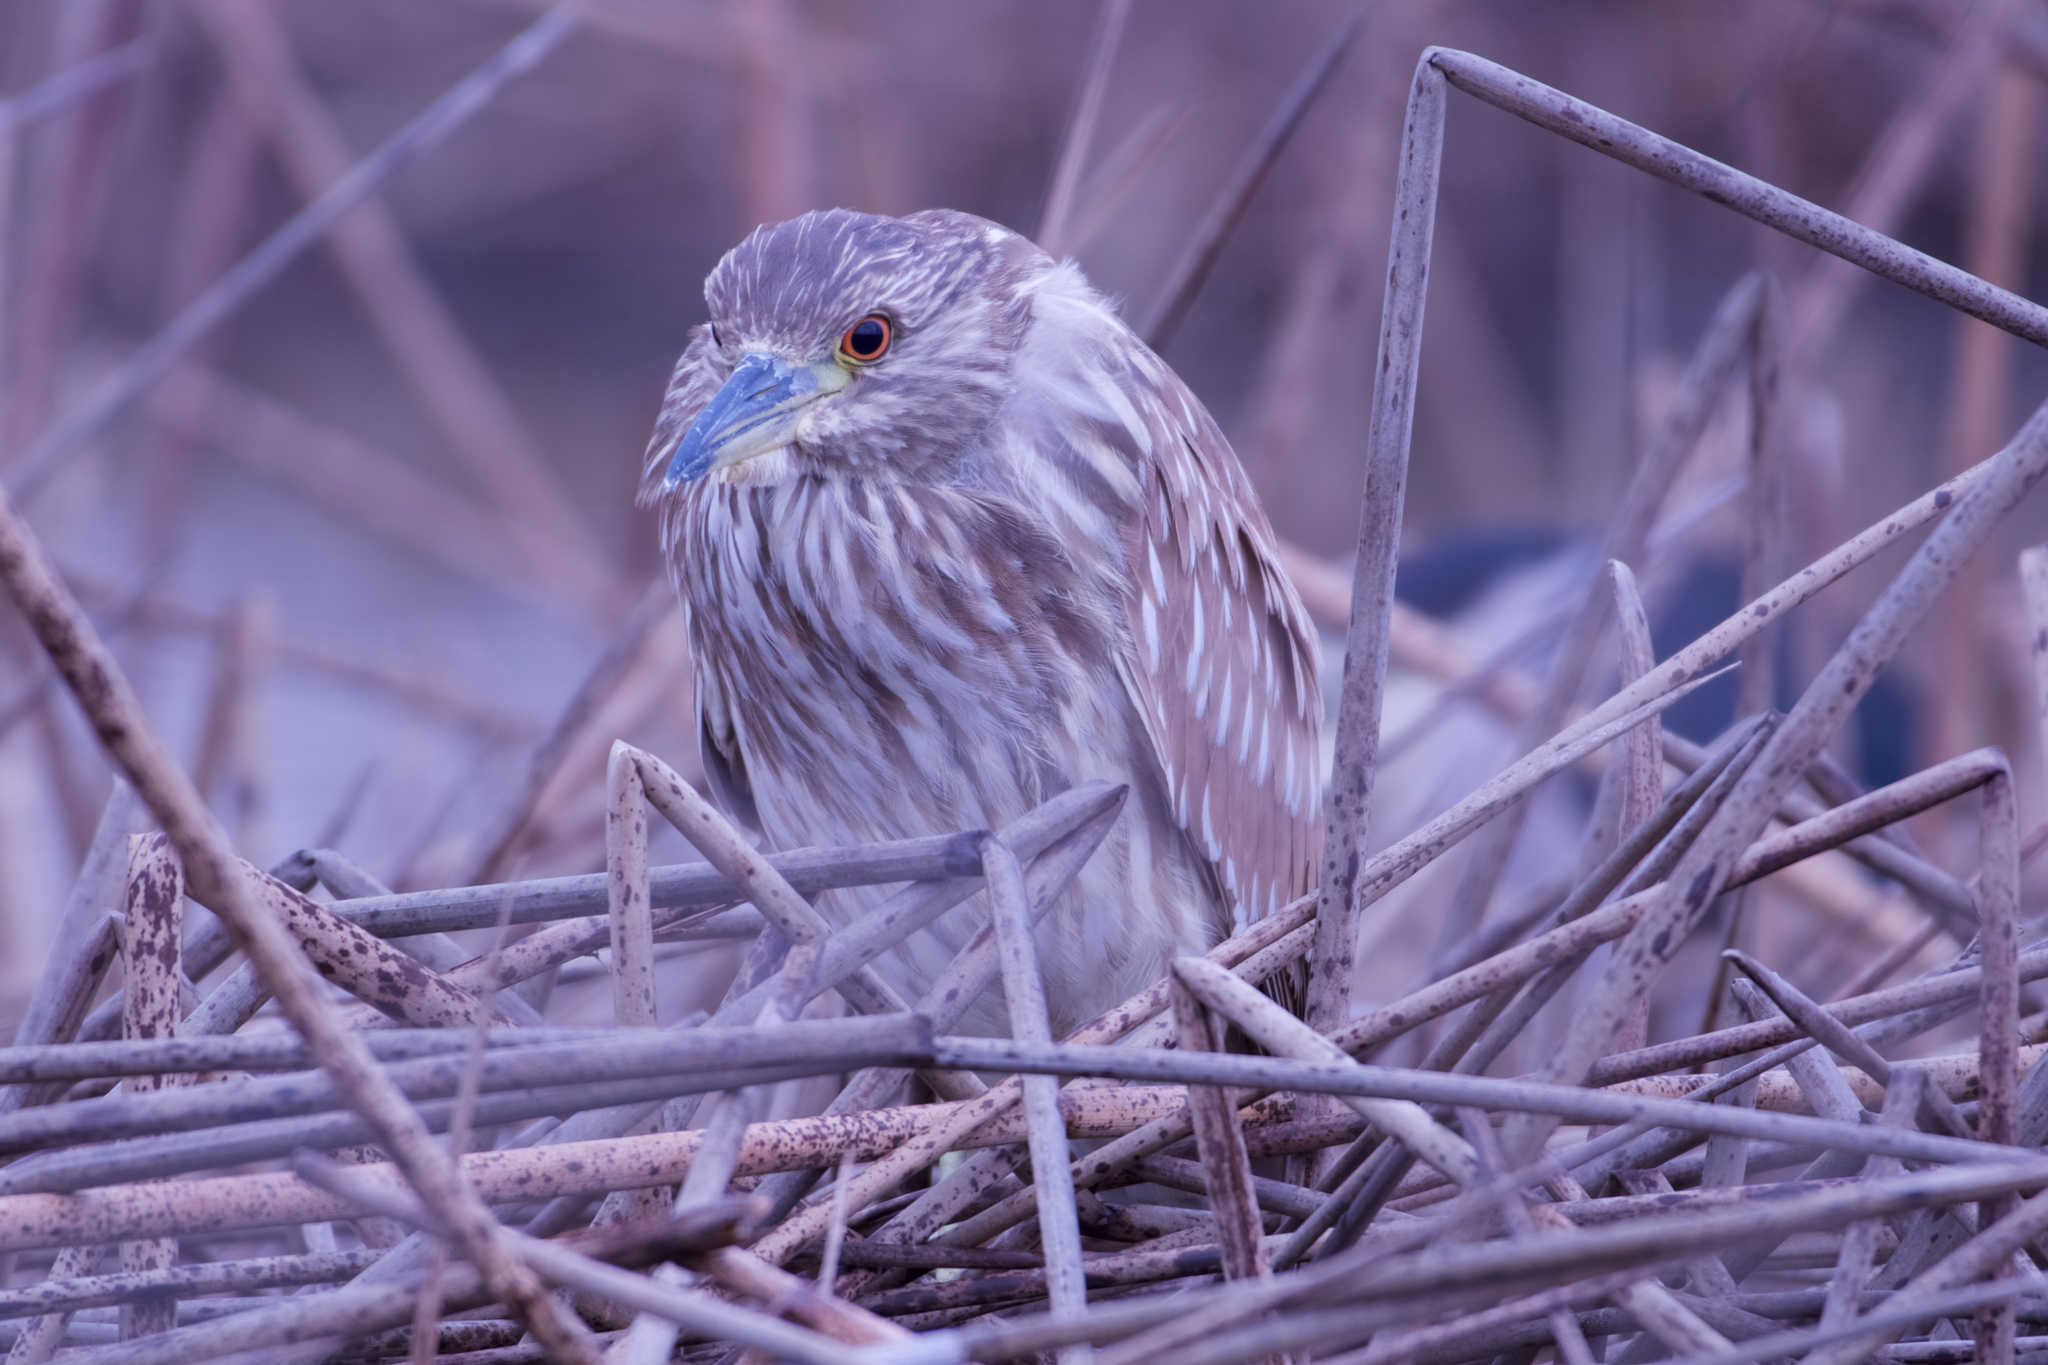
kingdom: Animalia
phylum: Chordata
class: Aves
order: Pelecaniformes
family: Ardeidae
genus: Nycticorax
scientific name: Nycticorax nycticorax
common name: Black-crowned night heron
